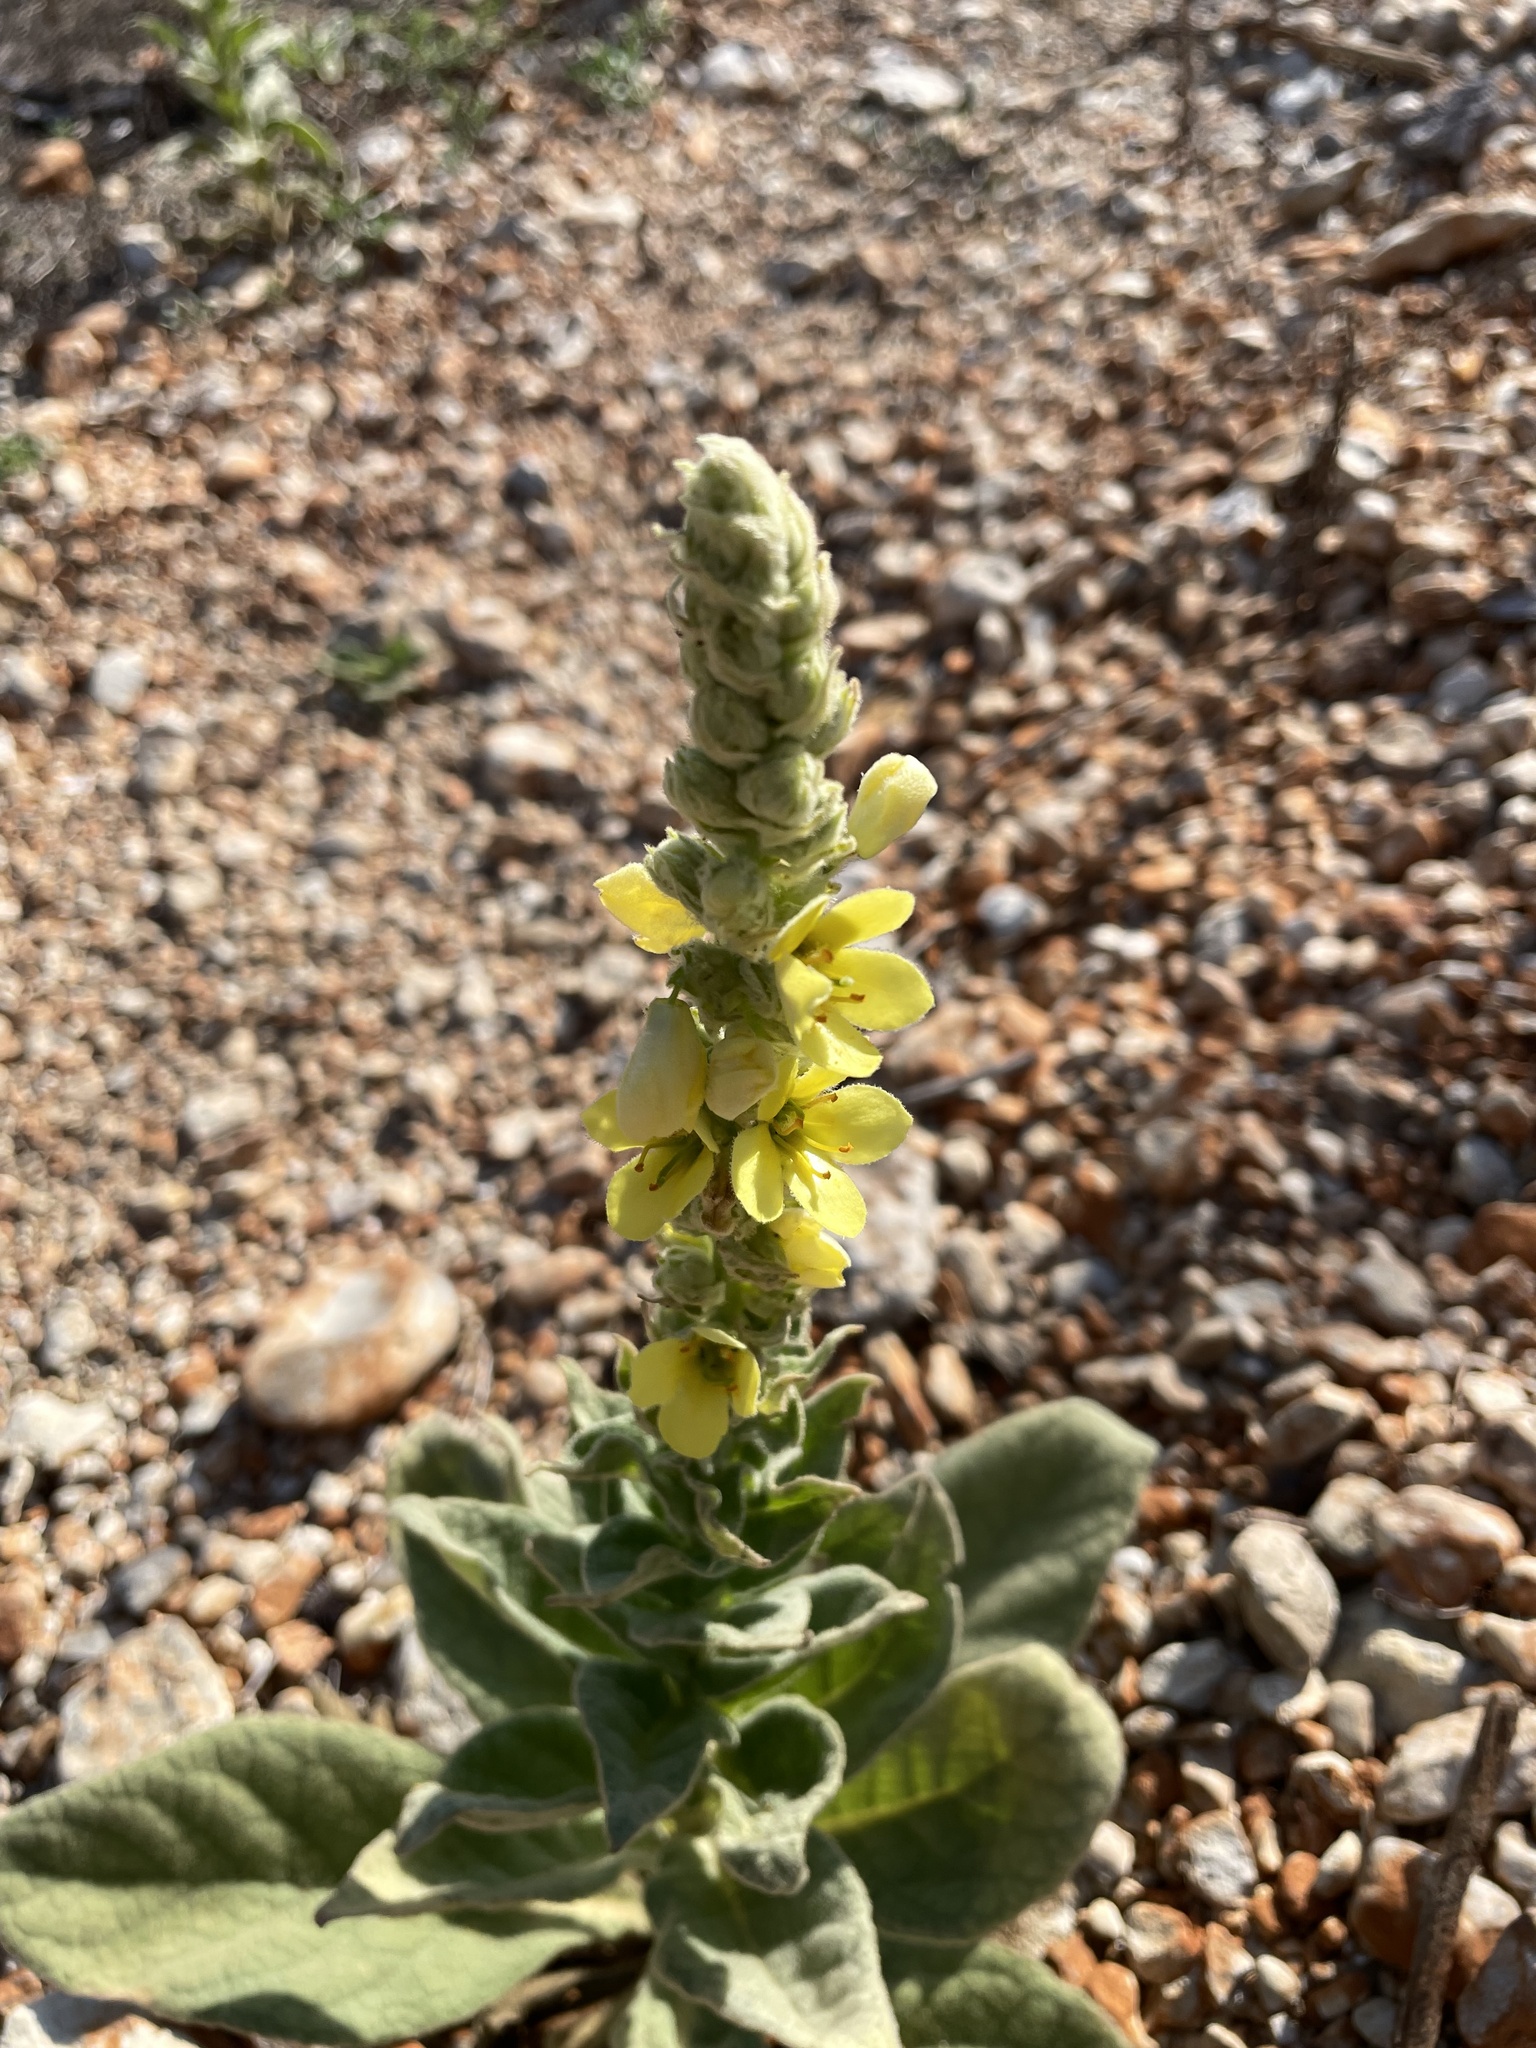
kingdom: Plantae
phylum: Tracheophyta
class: Magnoliopsida
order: Lamiales
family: Scrophulariaceae
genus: Verbascum
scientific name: Verbascum thapsus
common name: Common mullein
